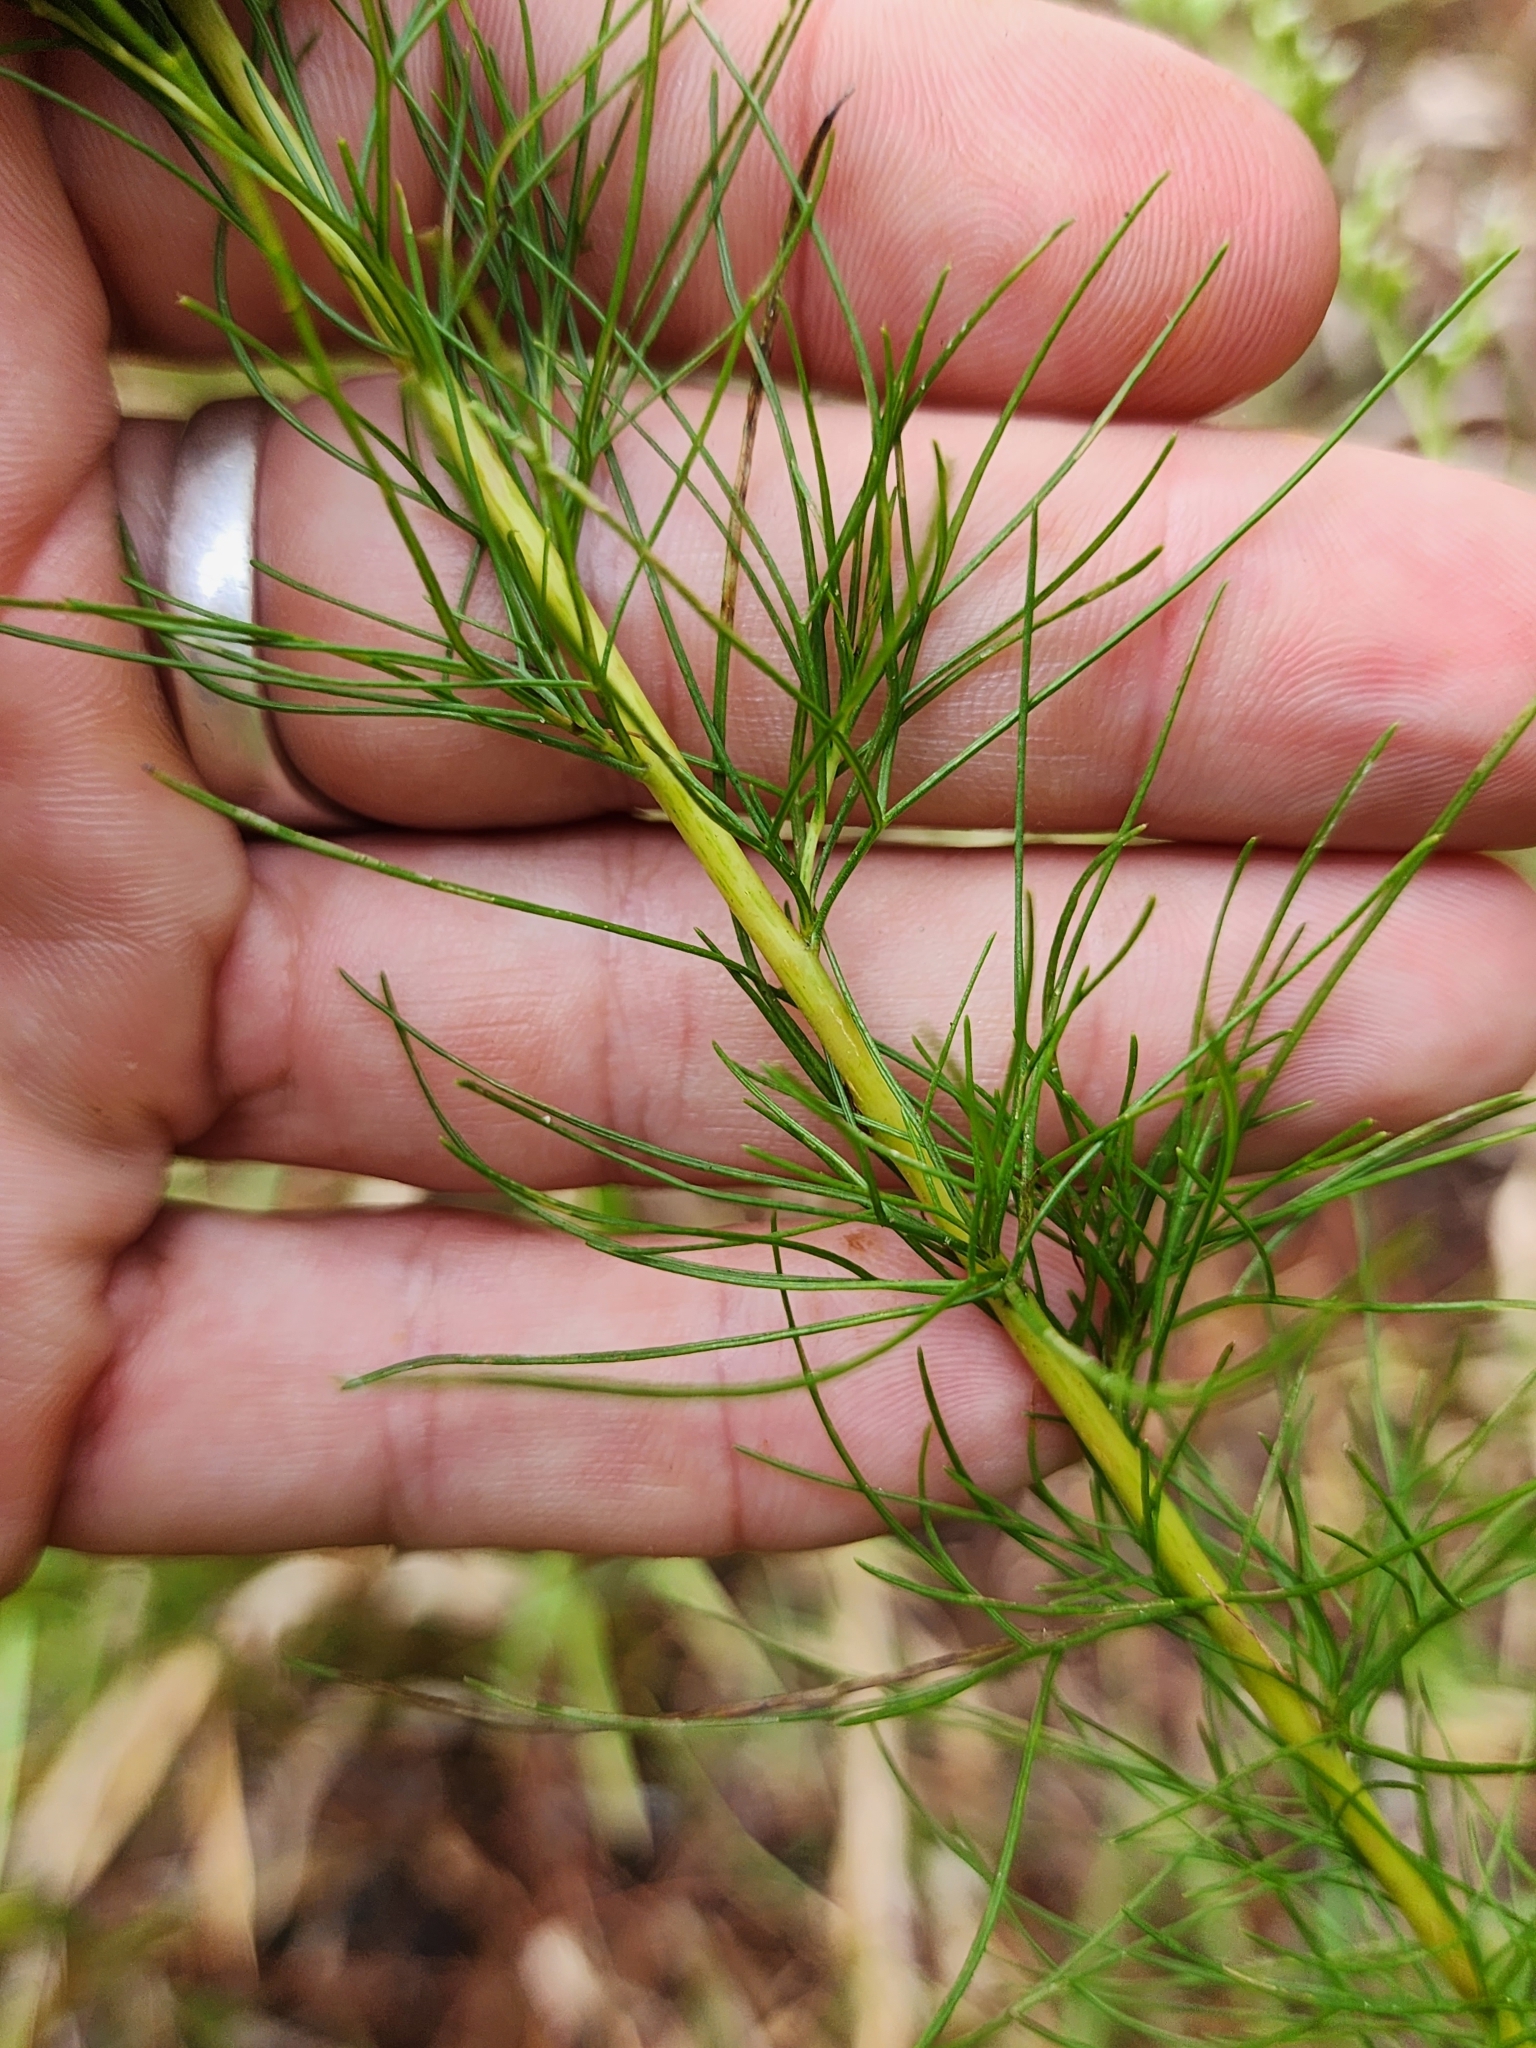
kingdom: Plantae
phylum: Tracheophyta
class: Magnoliopsida
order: Asterales
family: Asteraceae
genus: Eupatorium
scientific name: Eupatorium leptophyllum
